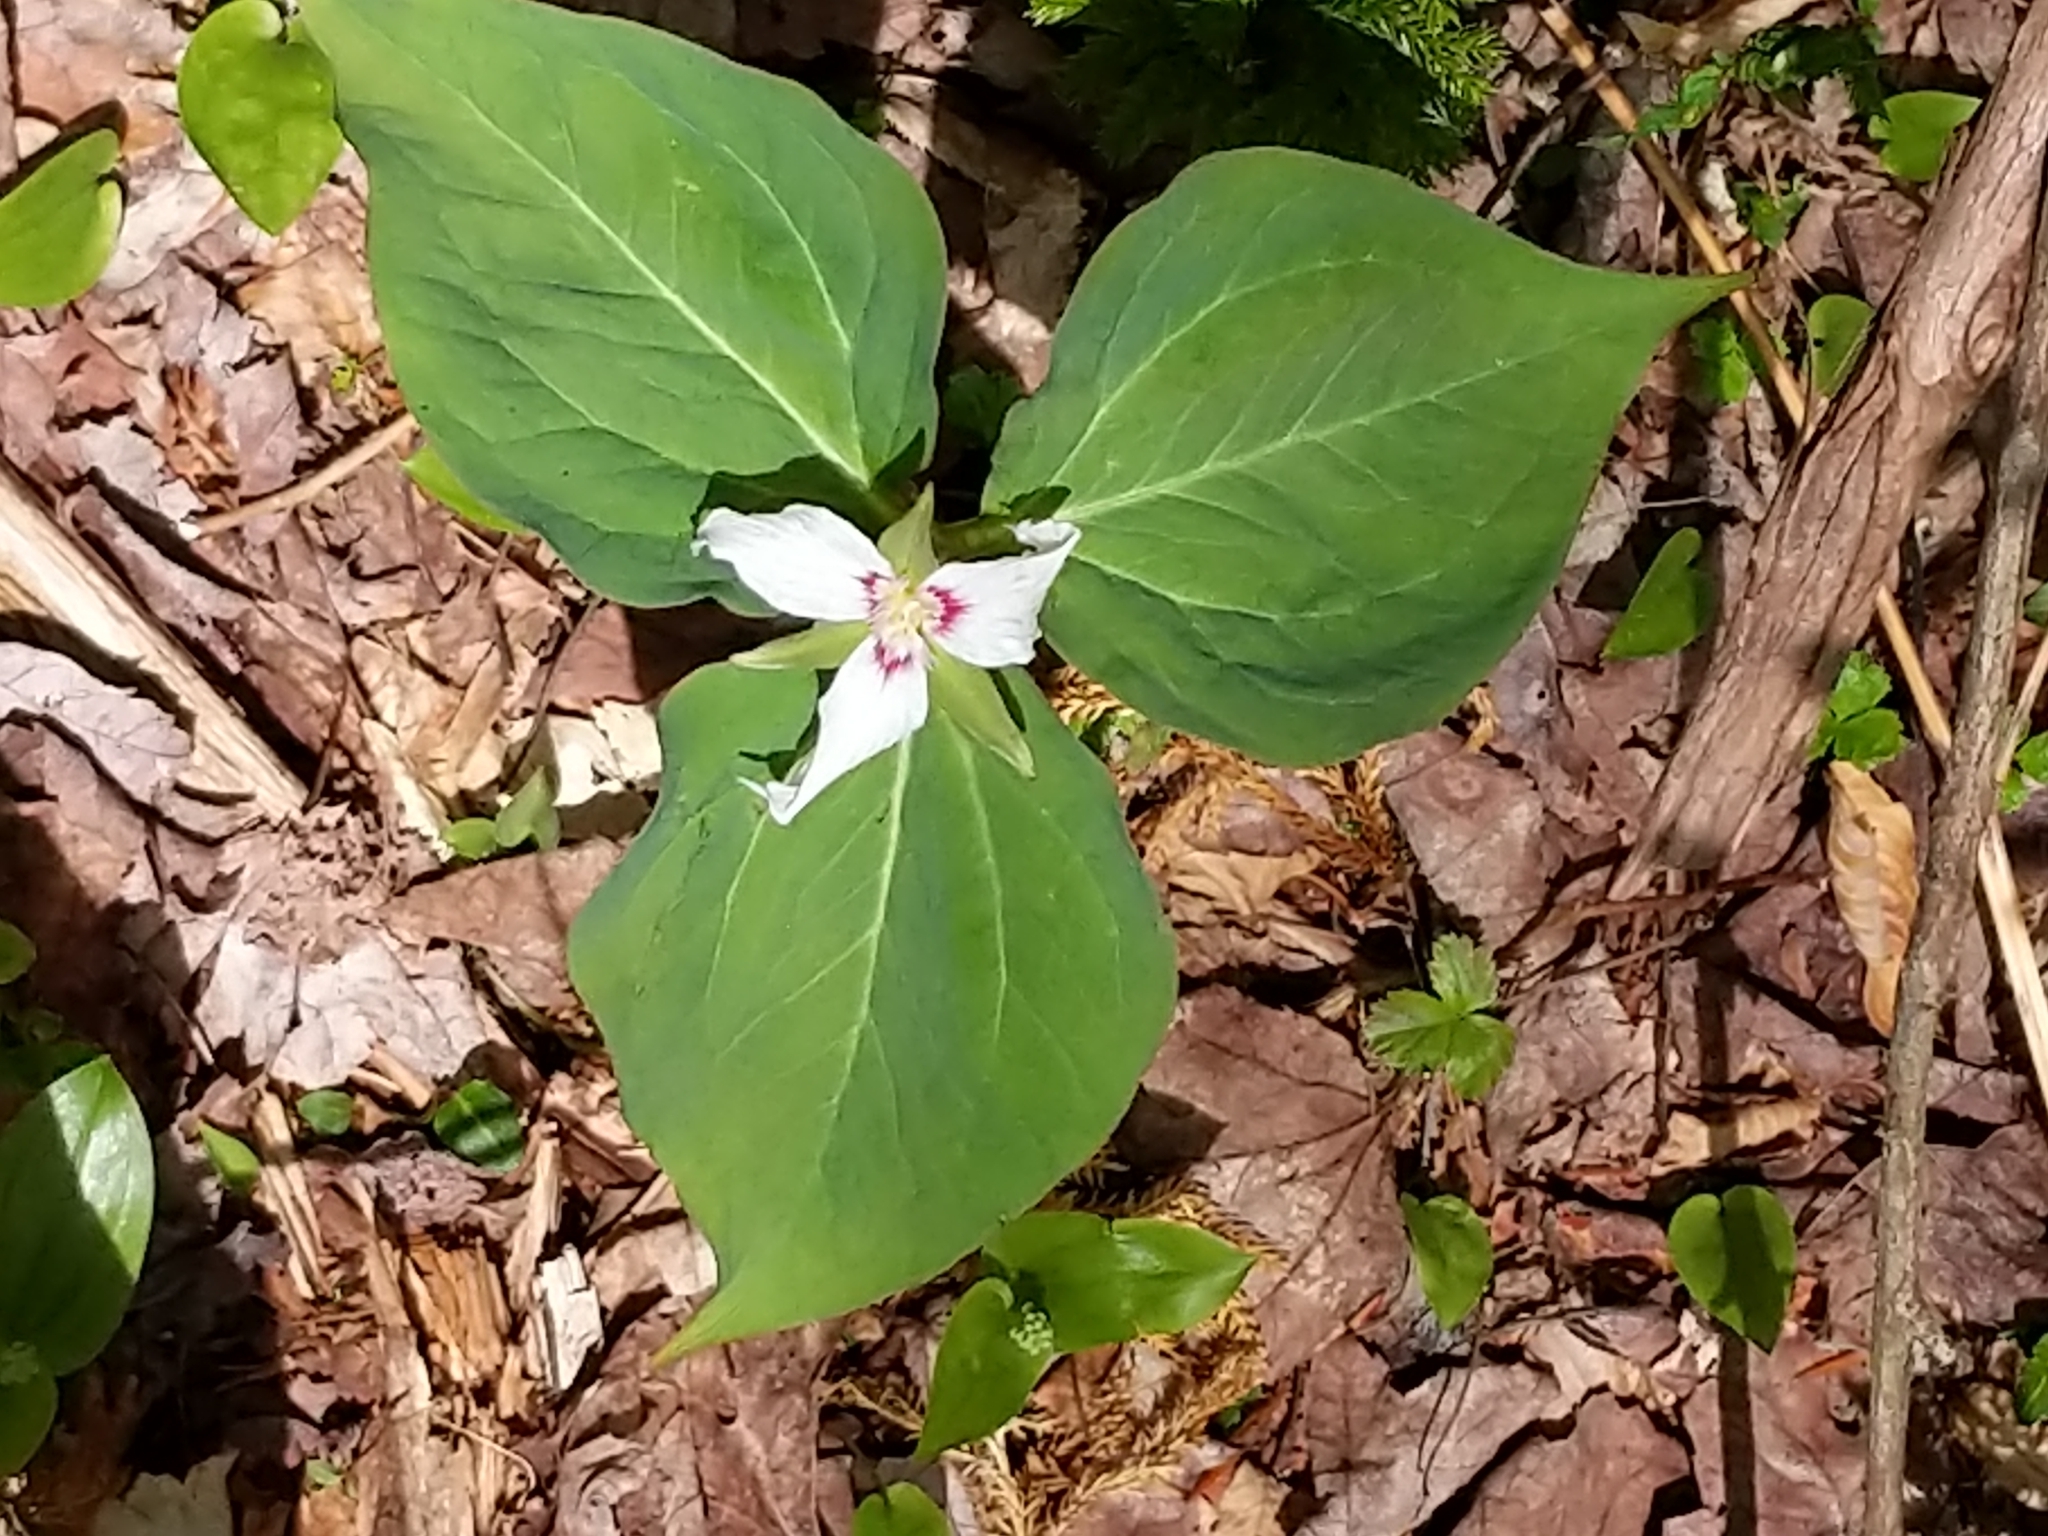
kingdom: Plantae
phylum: Tracheophyta
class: Liliopsida
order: Liliales
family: Melanthiaceae
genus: Trillium
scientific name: Trillium undulatum
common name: Paint trillium
